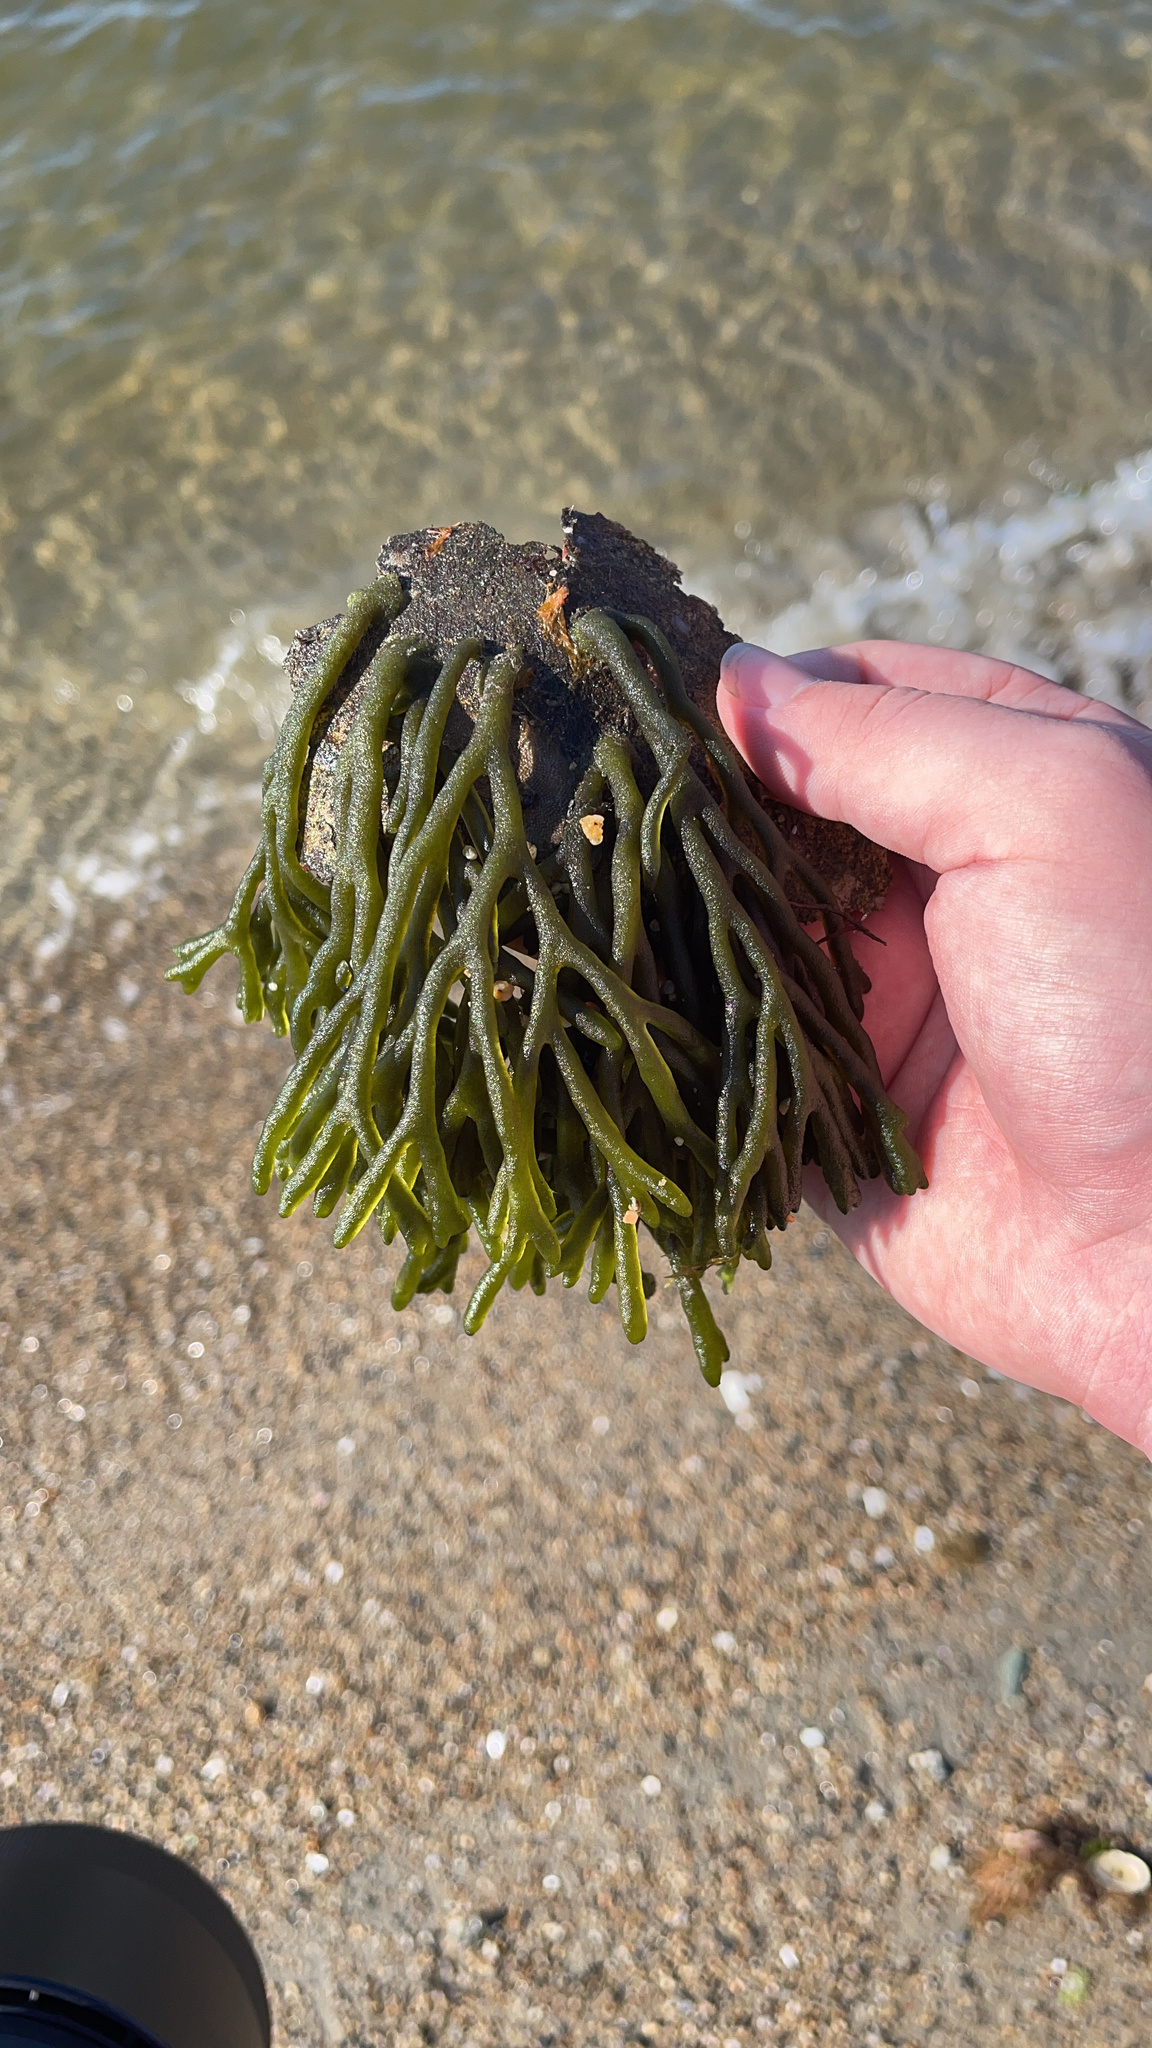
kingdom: Plantae
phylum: Chlorophyta
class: Ulvophyceae
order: Bryopsidales
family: Codiaceae
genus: Codium
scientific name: Codium fragile
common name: Dead man's fingers
